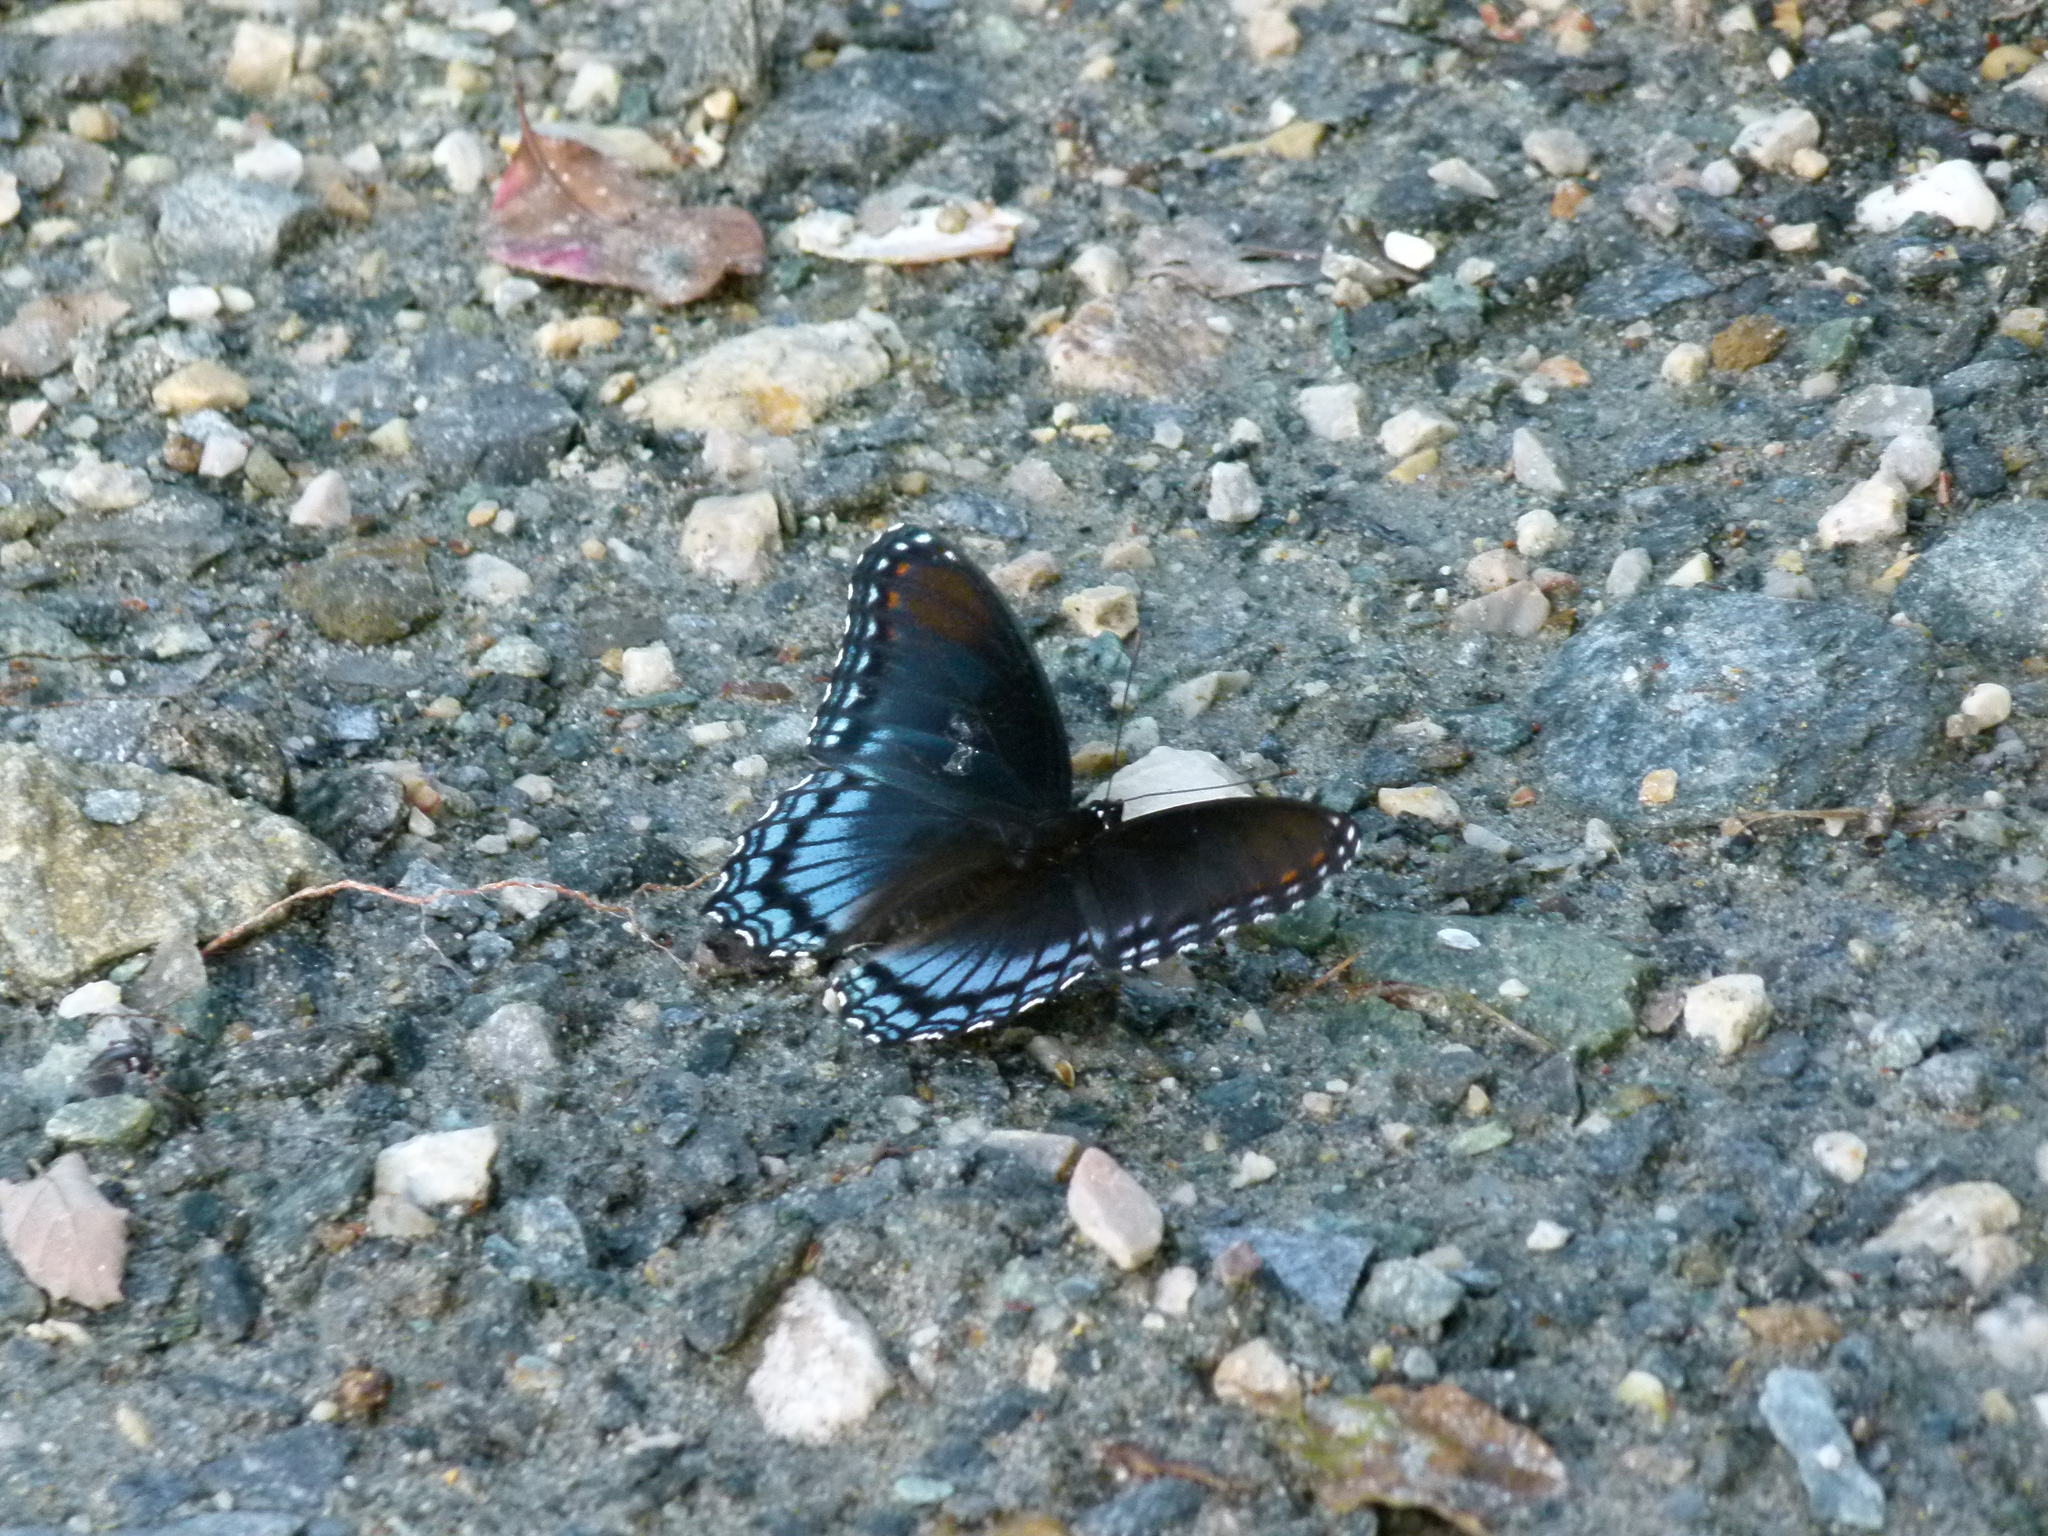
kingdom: Animalia
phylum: Arthropoda
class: Insecta
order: Lepidoptera
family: Nymphalidae
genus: Limenitis
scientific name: Limenitis astyanax
